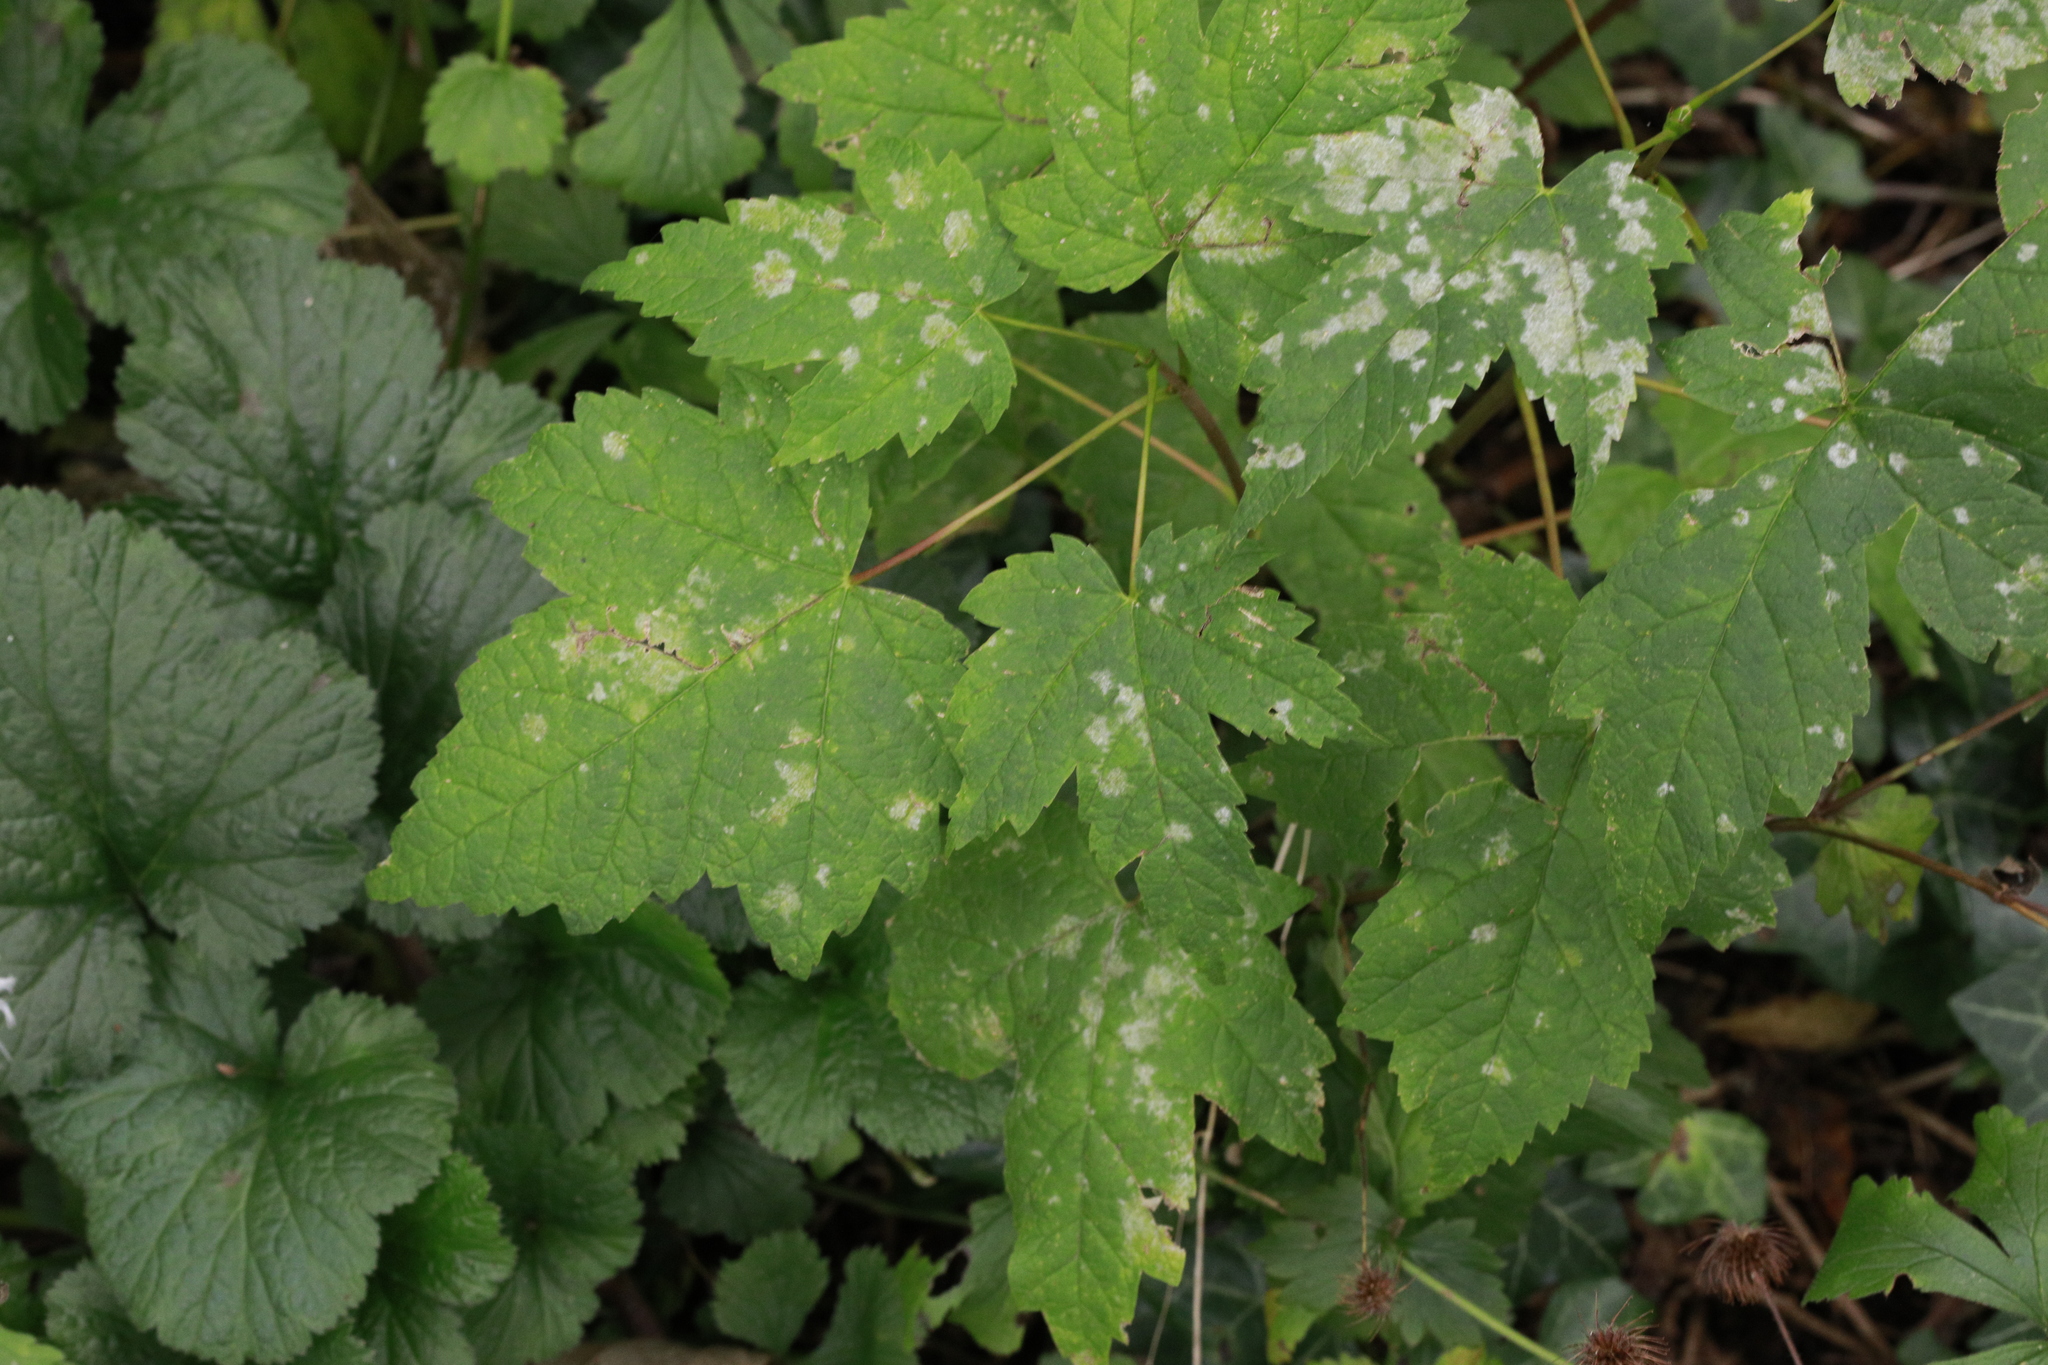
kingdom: Fungi
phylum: Ascomycota
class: Leotiomycetes
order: Helotiales
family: Erysiphaceae
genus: Sawadaea
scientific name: Sawadaea bicornis
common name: Maple mildew
